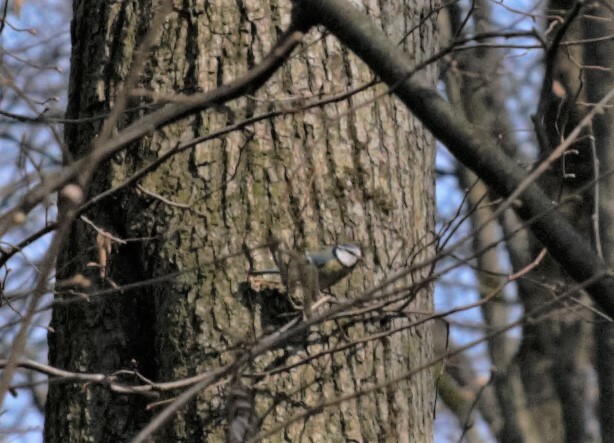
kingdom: Animalia
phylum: Chordata
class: Aves
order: Passeriformes
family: Paridae
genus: Cyanistes
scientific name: Cyanistes caeruleus
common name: Eurasian blue tit
